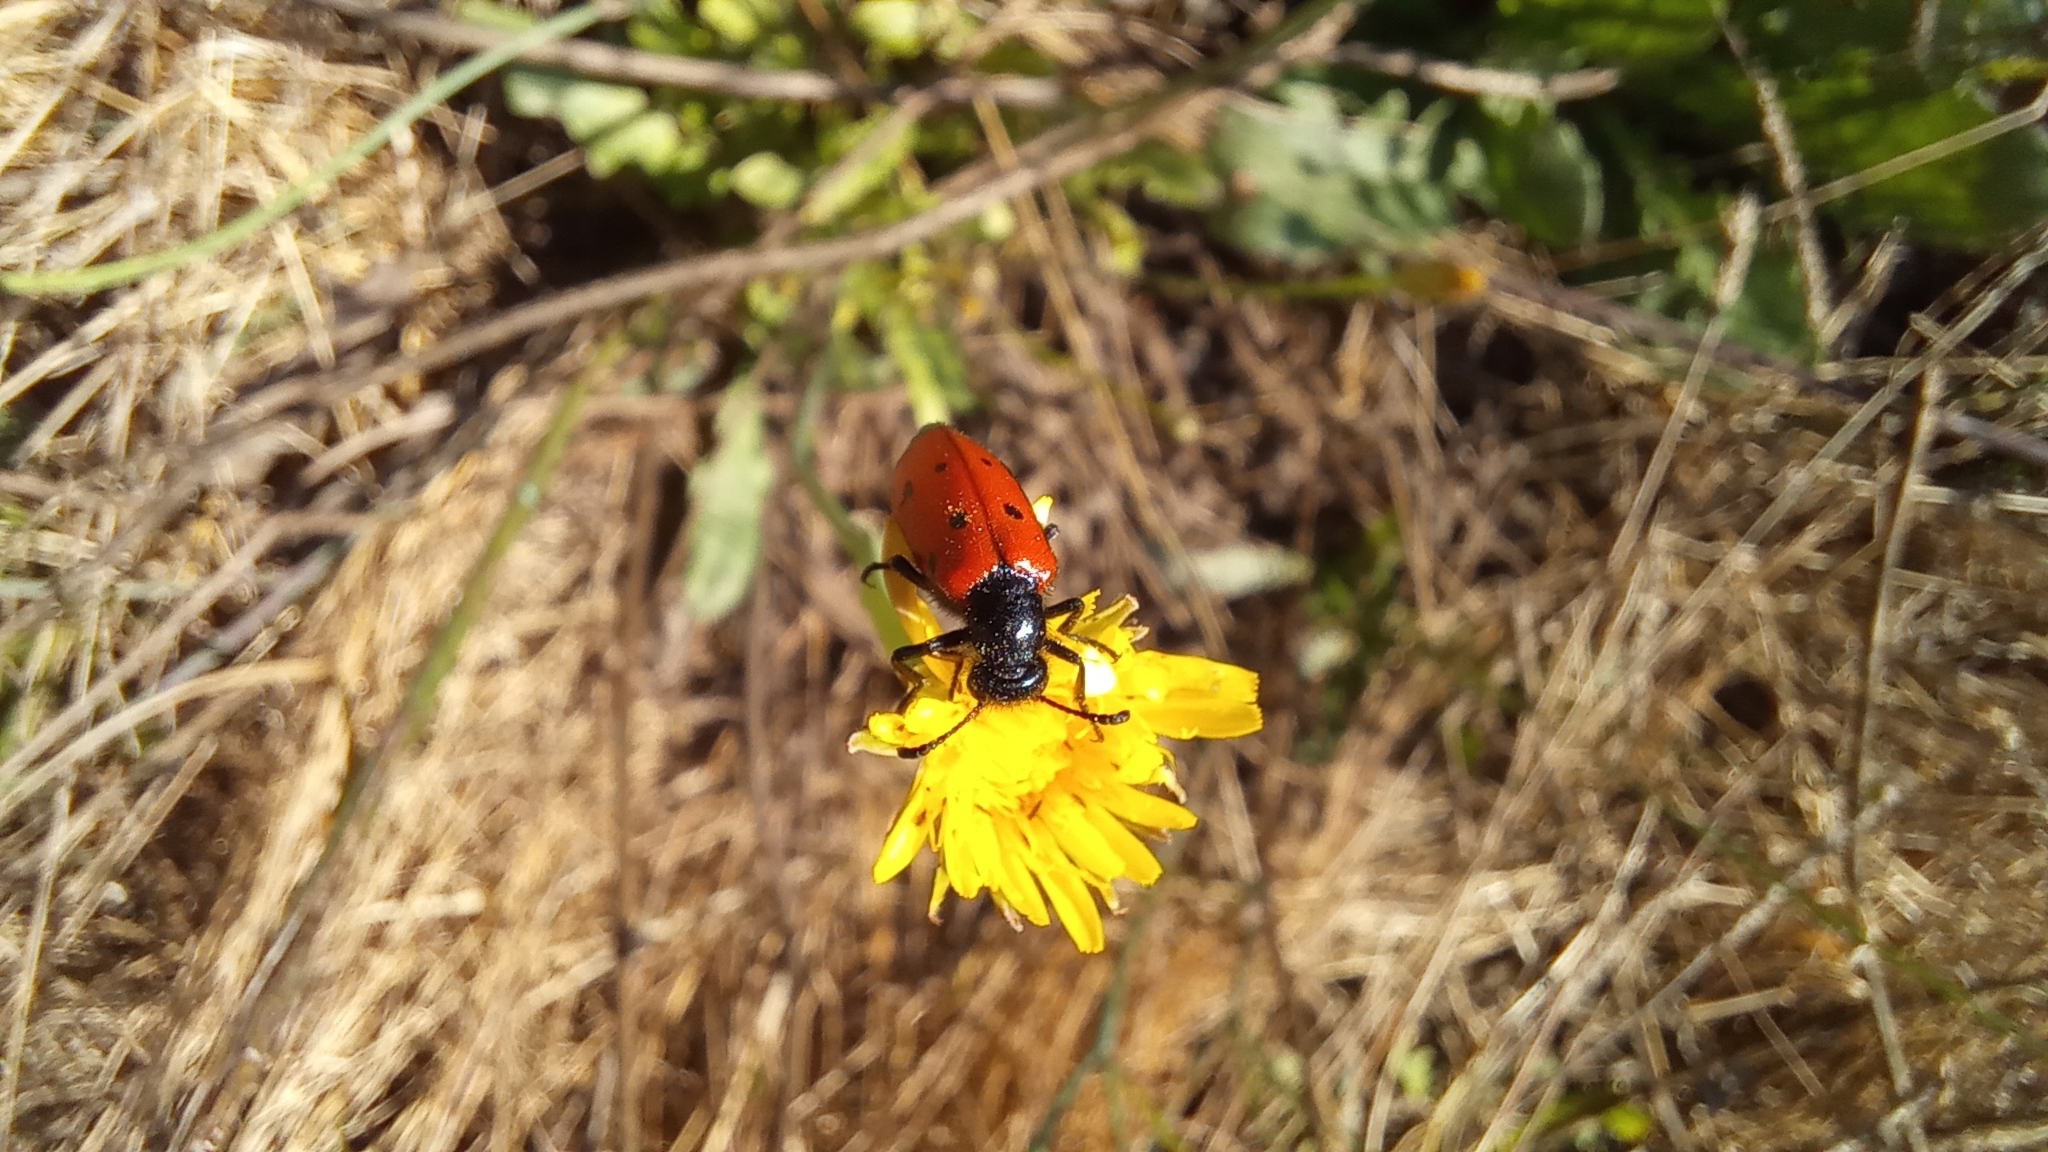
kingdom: Animalia
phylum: Arthropoda
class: Insecta
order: Coleoptera
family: Meloidae
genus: Mylabris
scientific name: Mylabris quadripunctata
